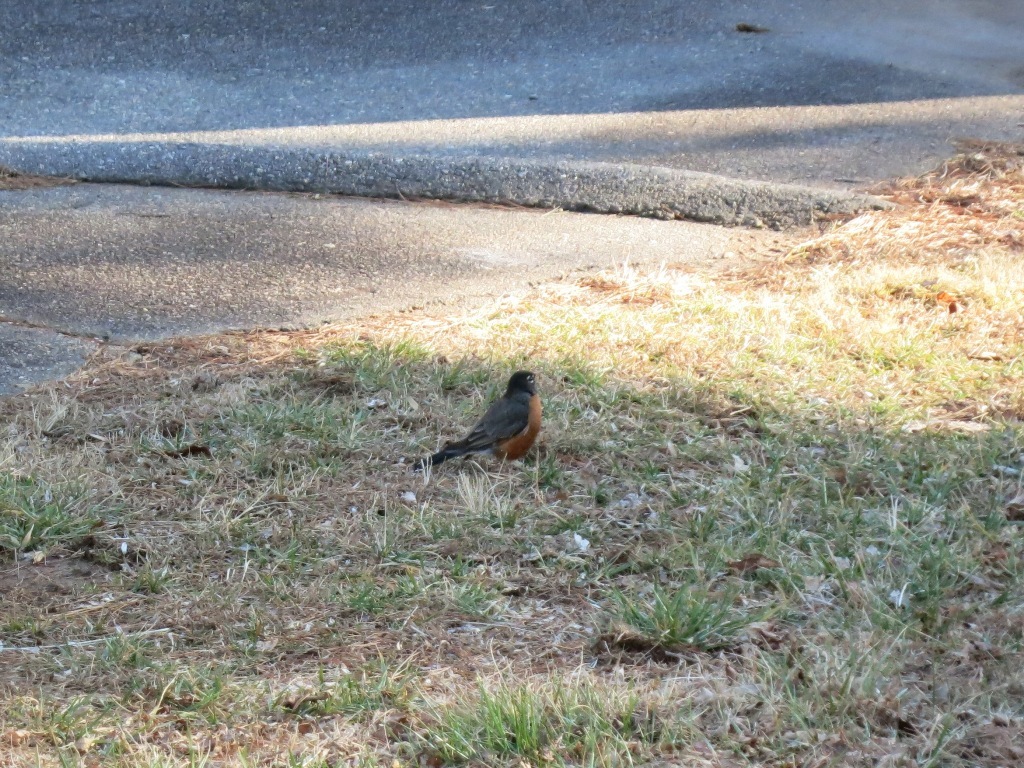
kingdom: Animalia
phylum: Chordata
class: Aves
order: Passeriformes
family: Turdidae
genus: Turdus
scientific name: Turdus migratorius
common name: American robin
